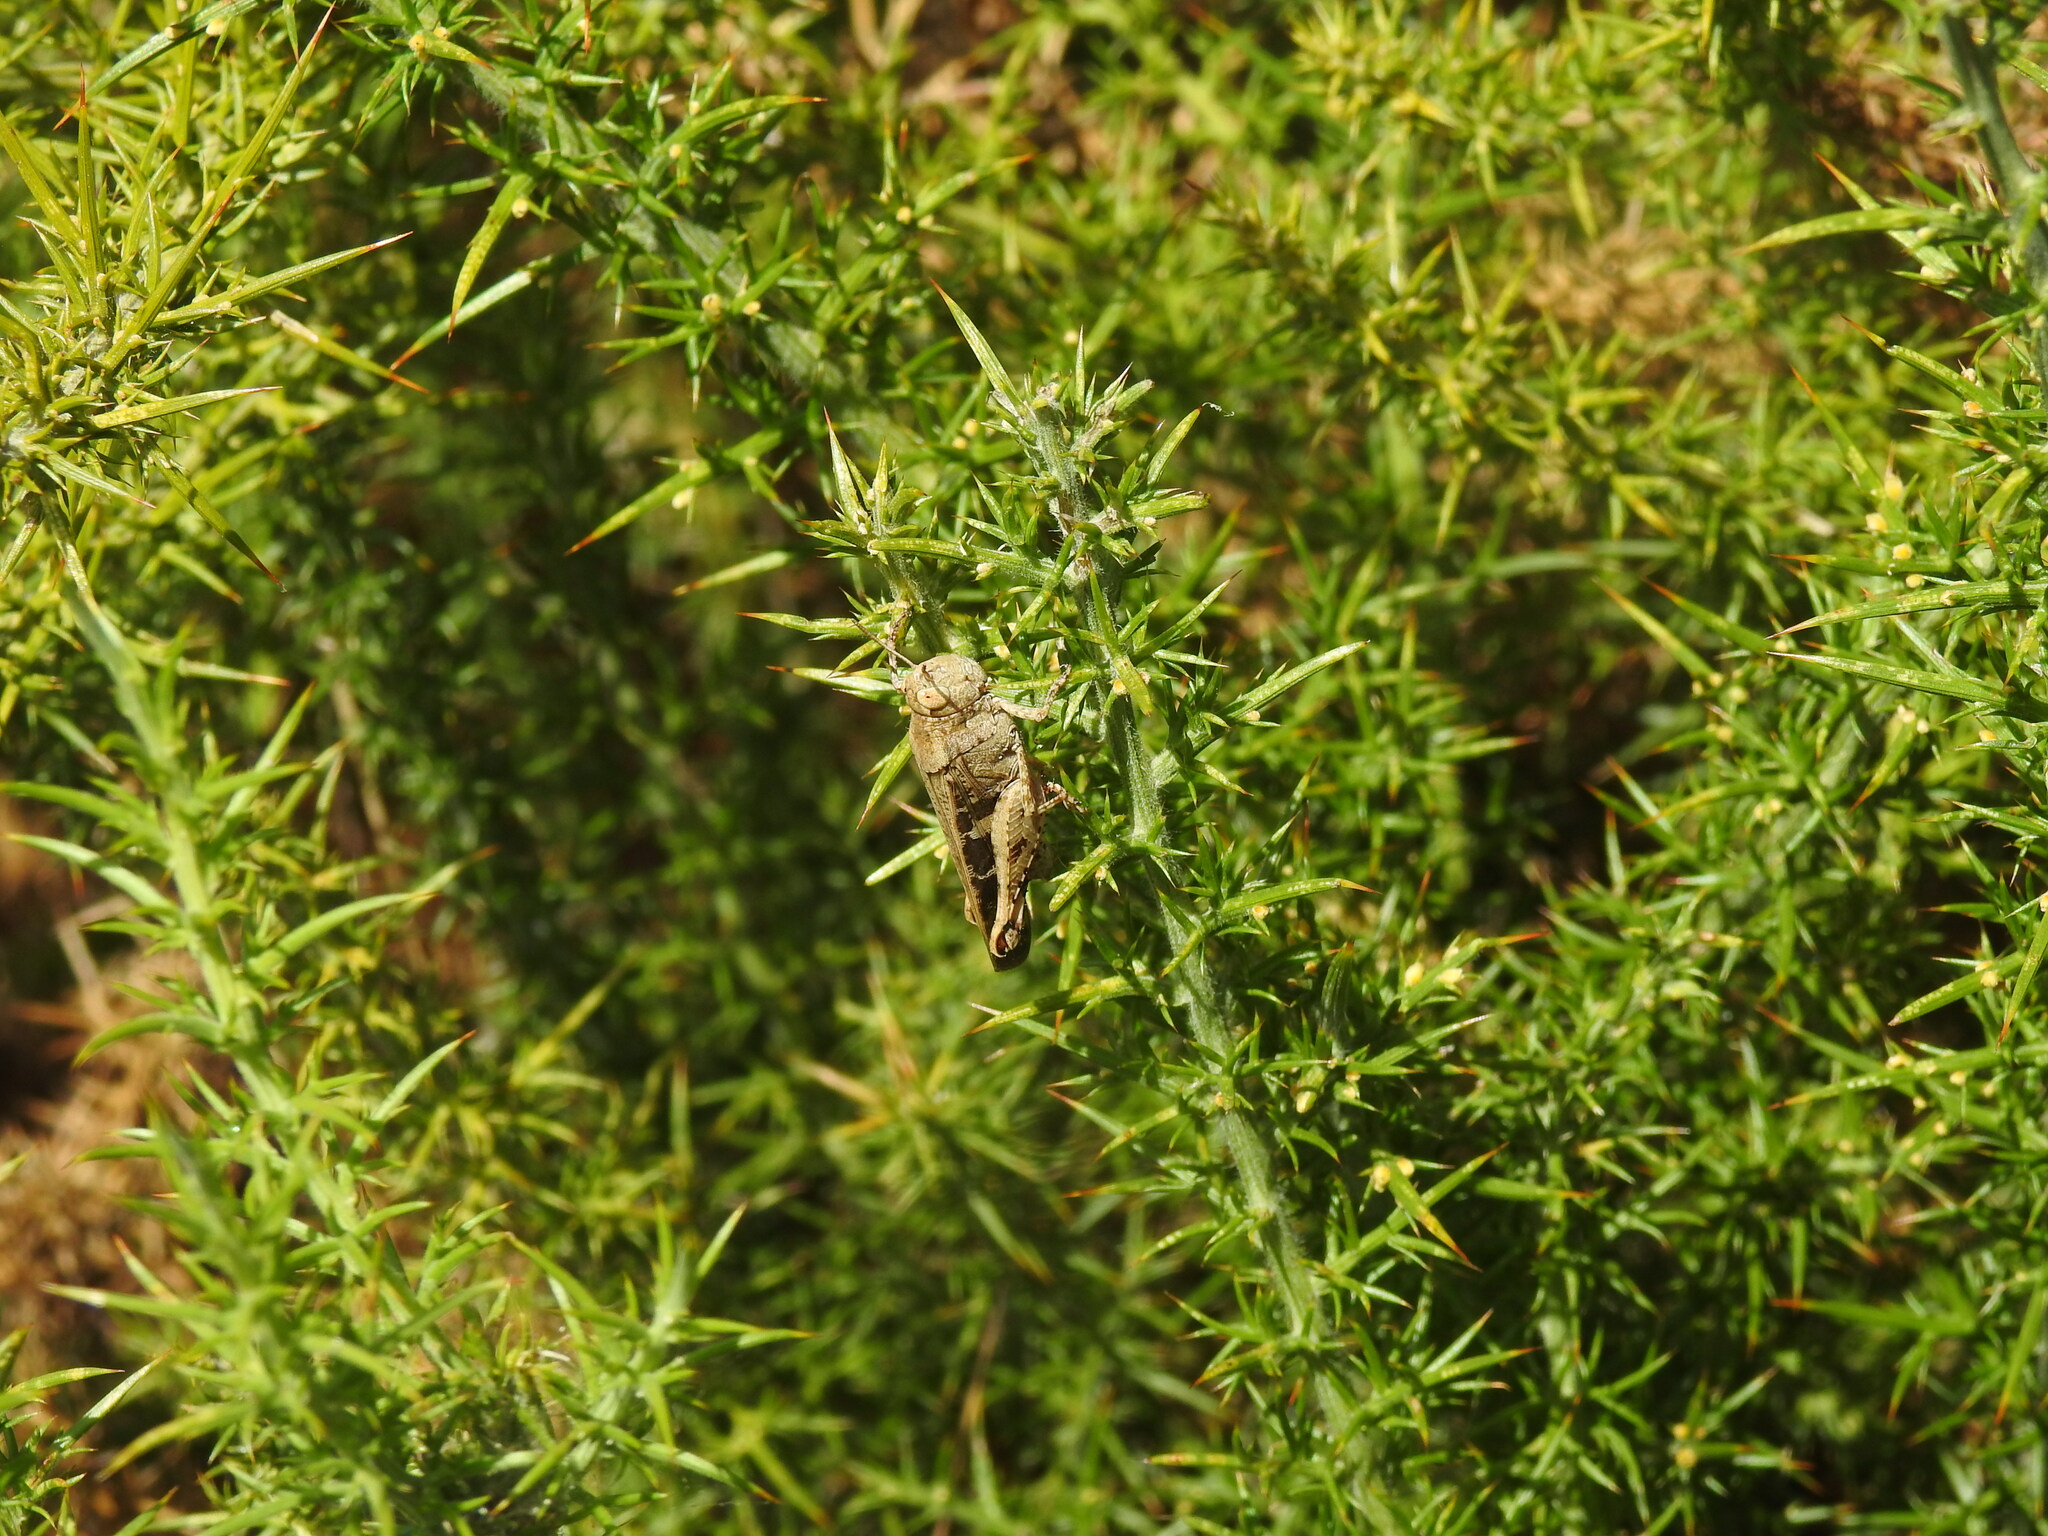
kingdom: Animalia
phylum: Arthropoda
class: Insecta
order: Orthoptera
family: Acrididae
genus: Aiolopus
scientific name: Aiolopus strepens
